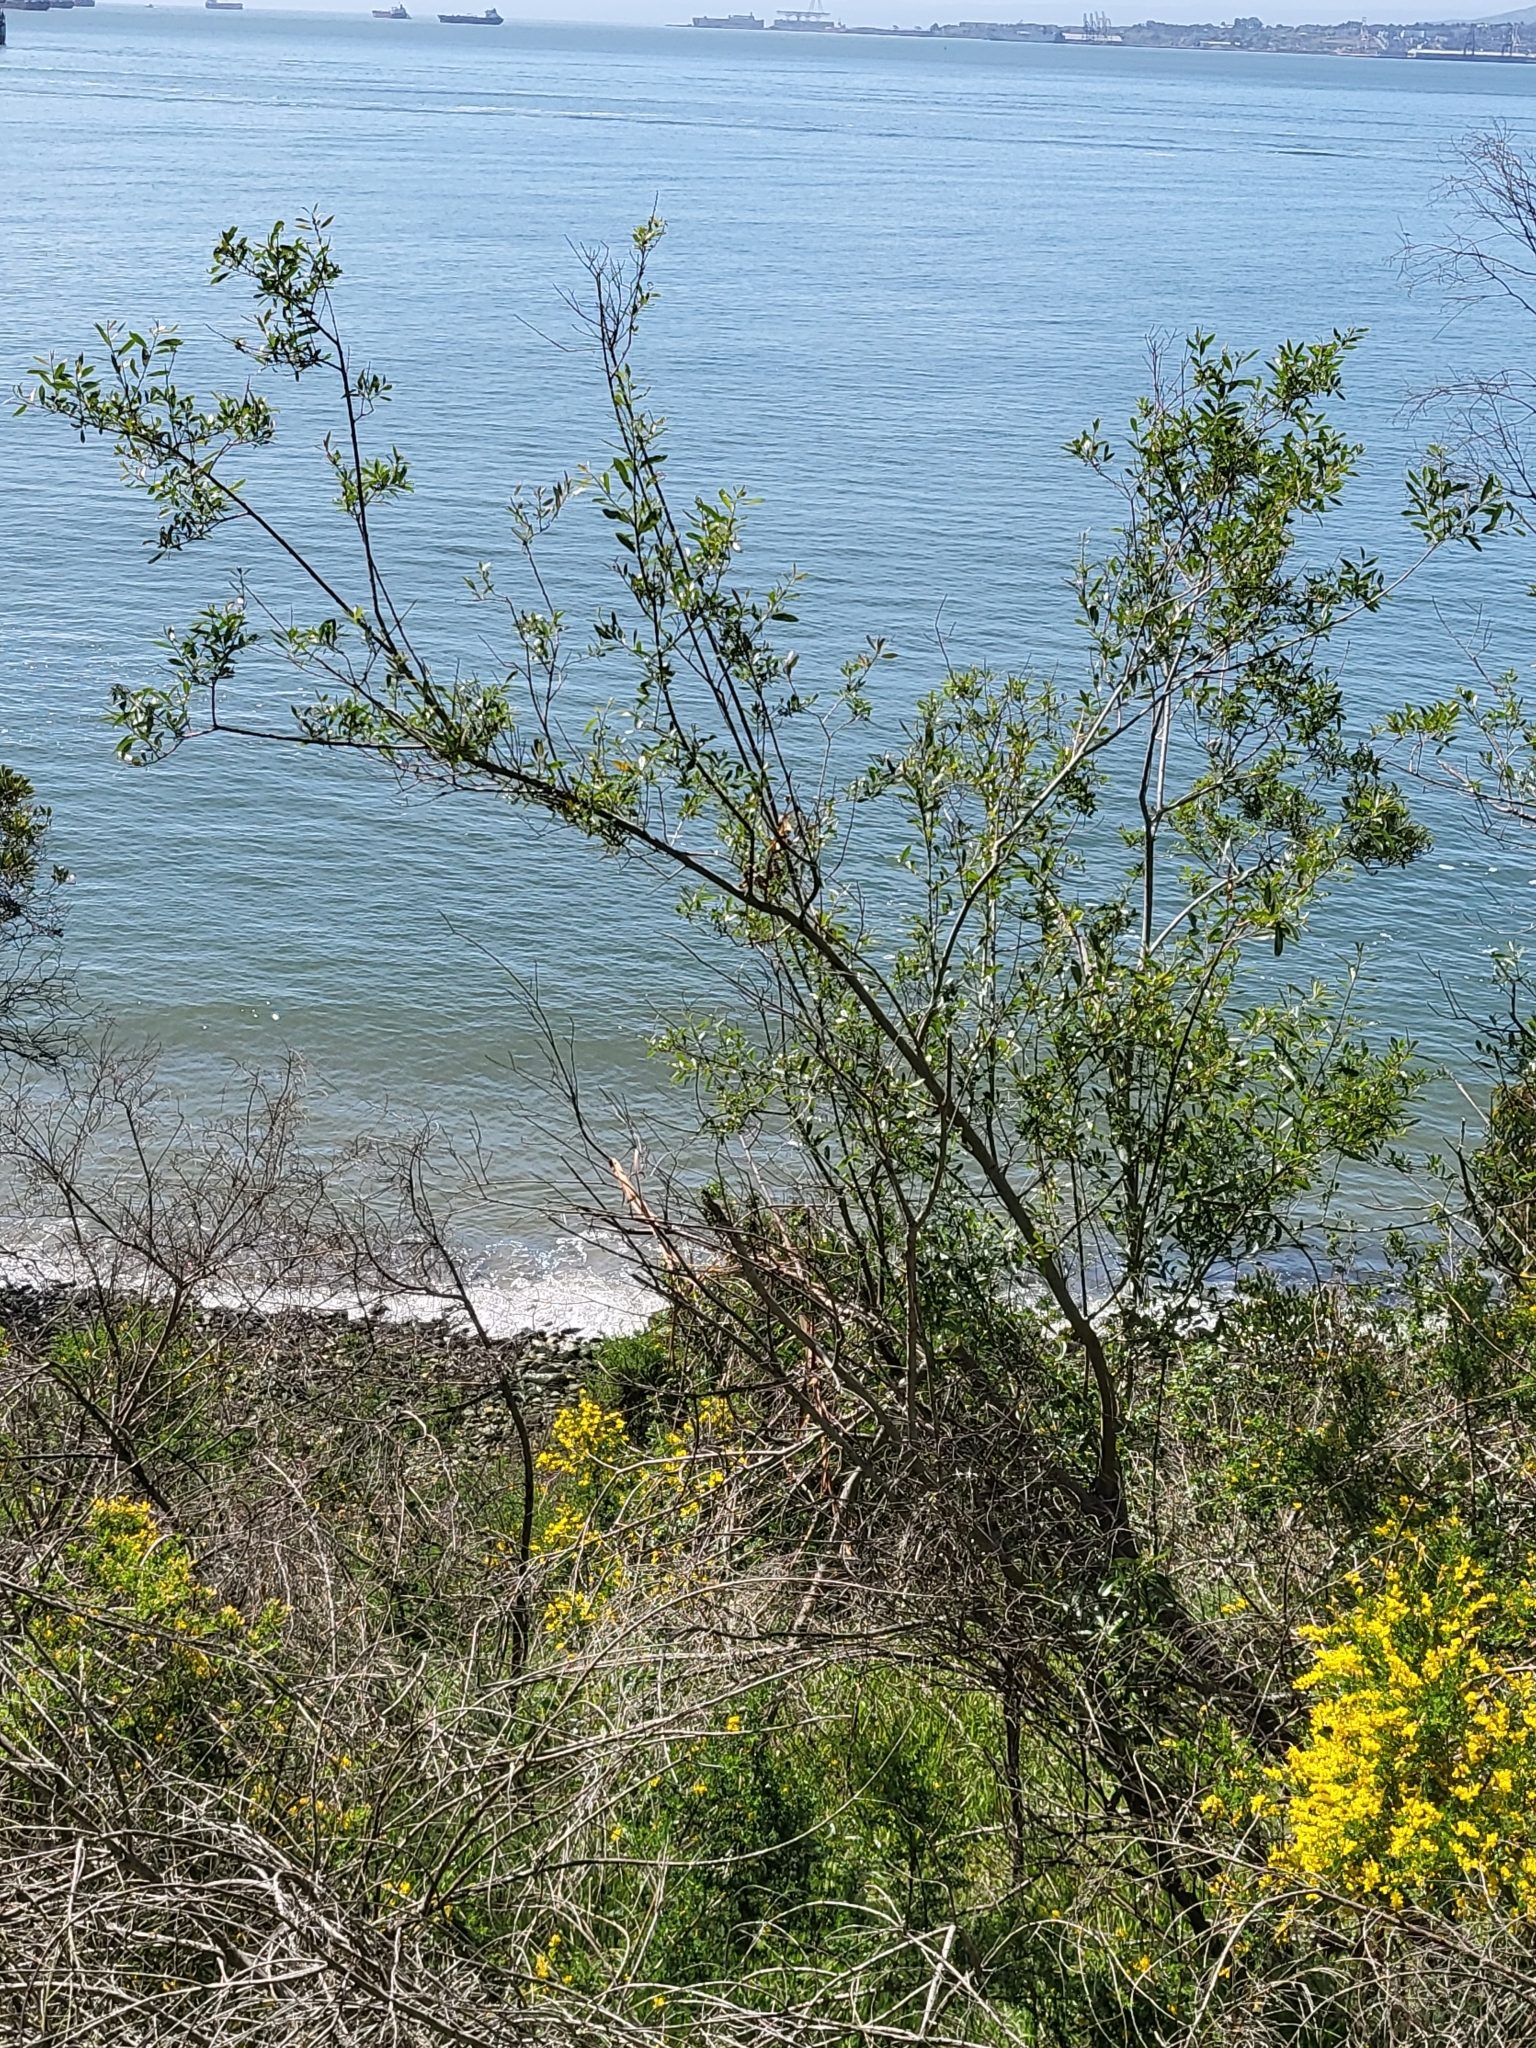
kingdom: Plantae
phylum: Tracheophyta
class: Magnoliopsida
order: Malpighiales
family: Salicaceae
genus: Salix
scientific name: Salix lasiolepis
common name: Arroyo willow
